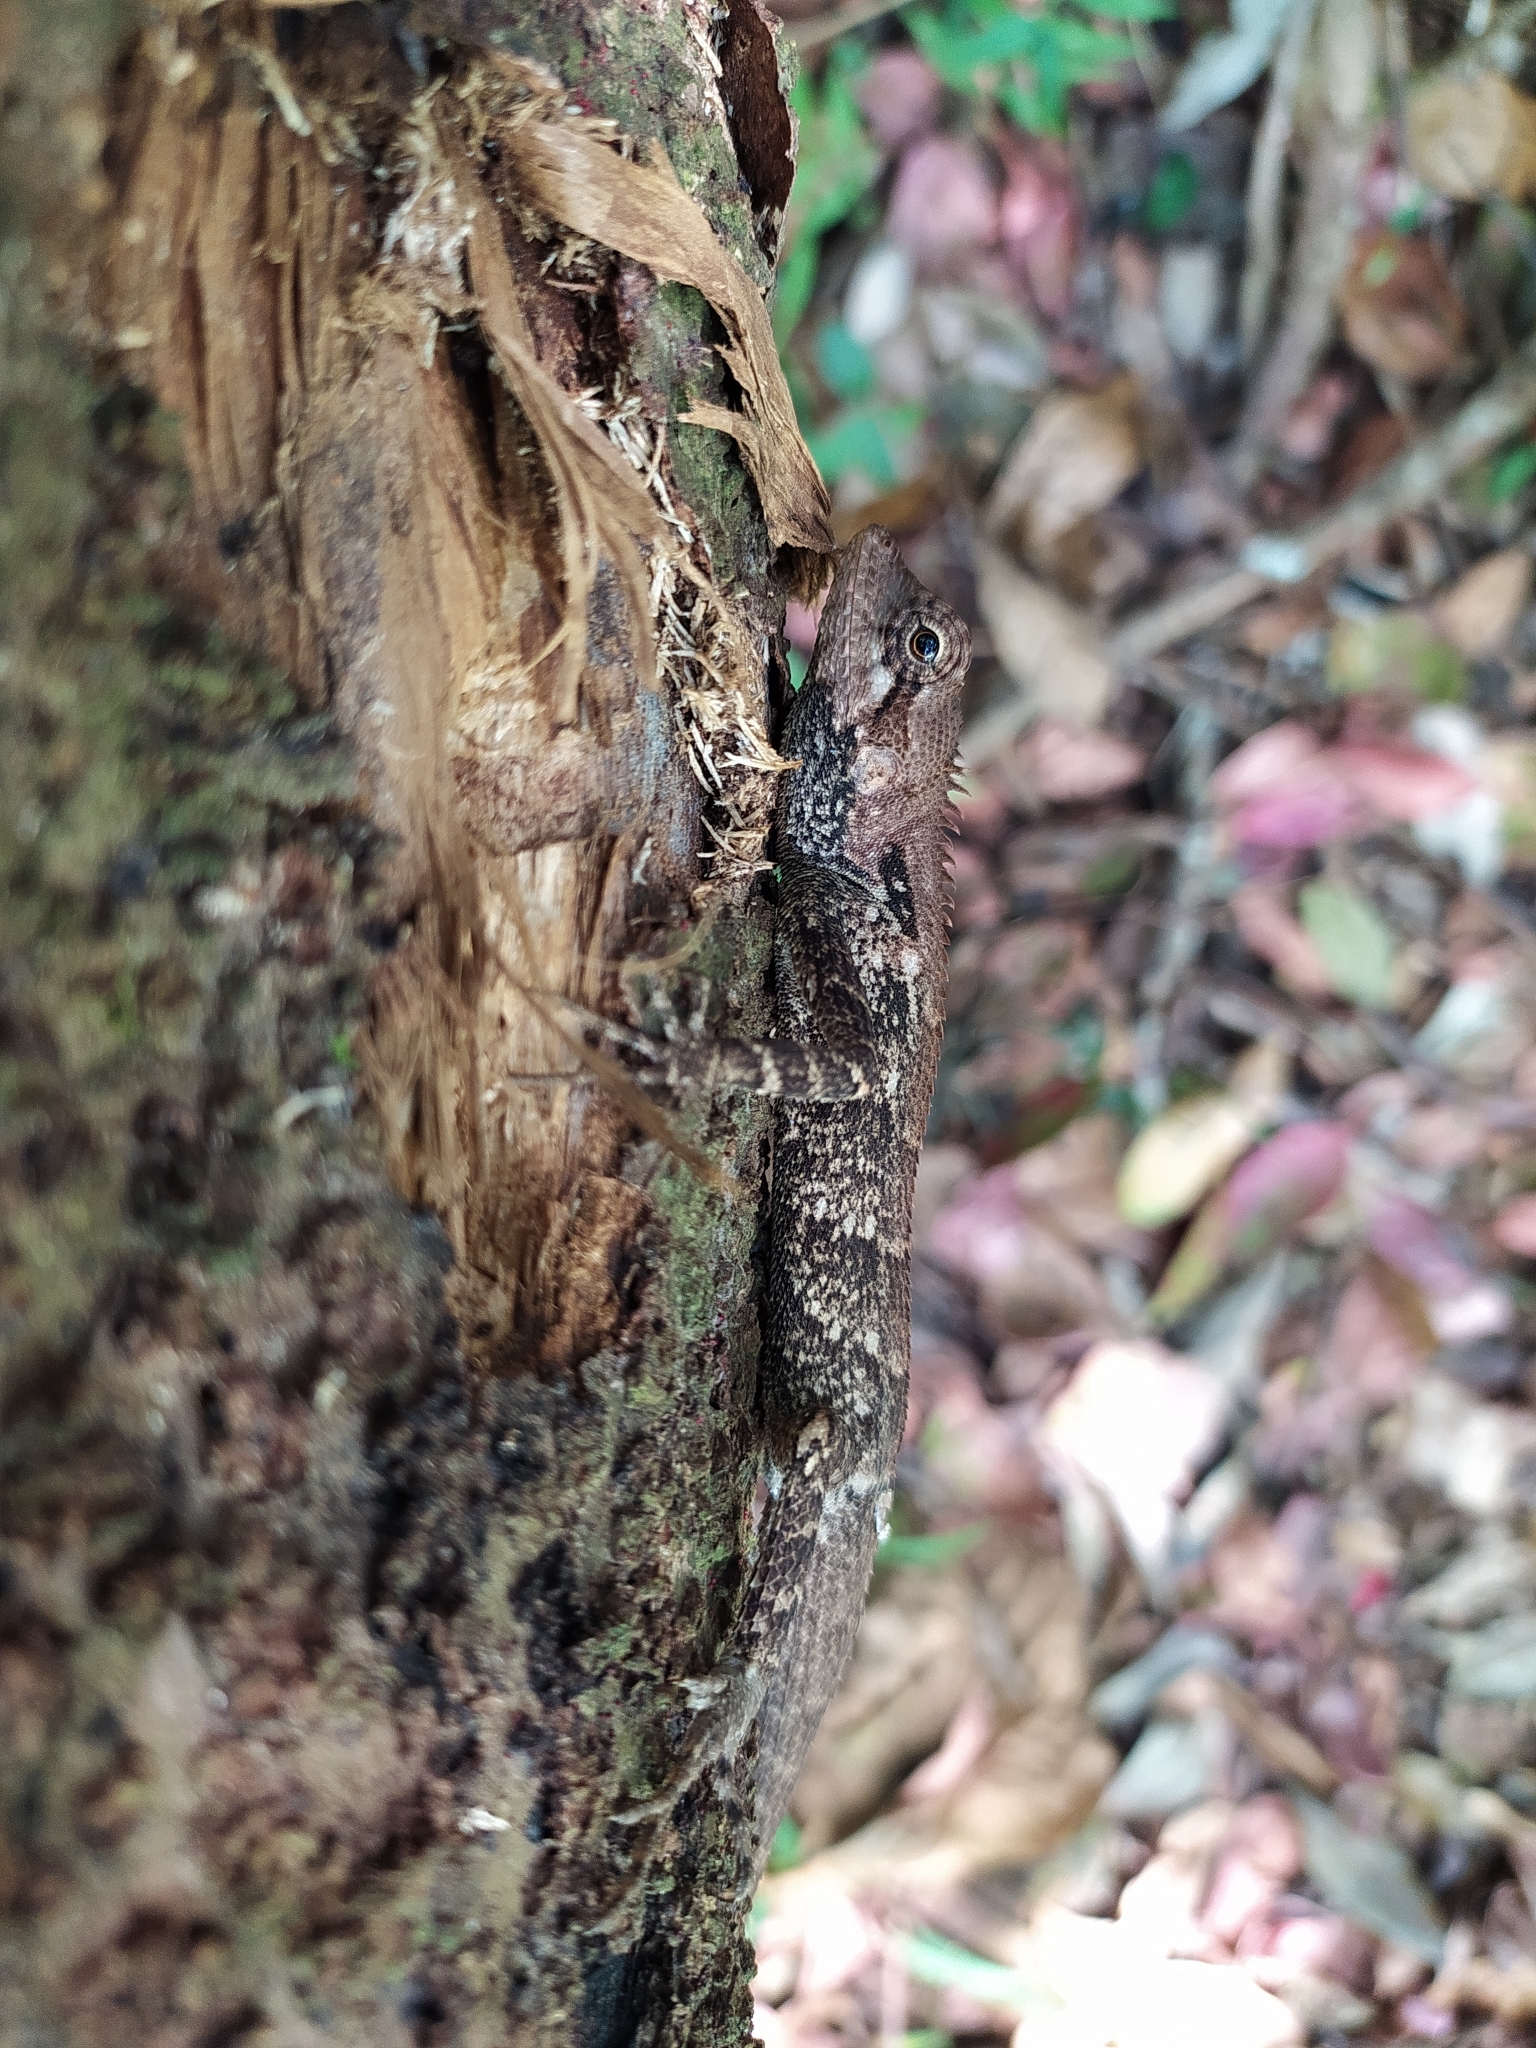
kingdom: Animalia
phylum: Chordata
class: Squamata
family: Agamidae
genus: Monilesaurus
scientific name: Monilesaurus rouxii
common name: Roux's forest lizard
